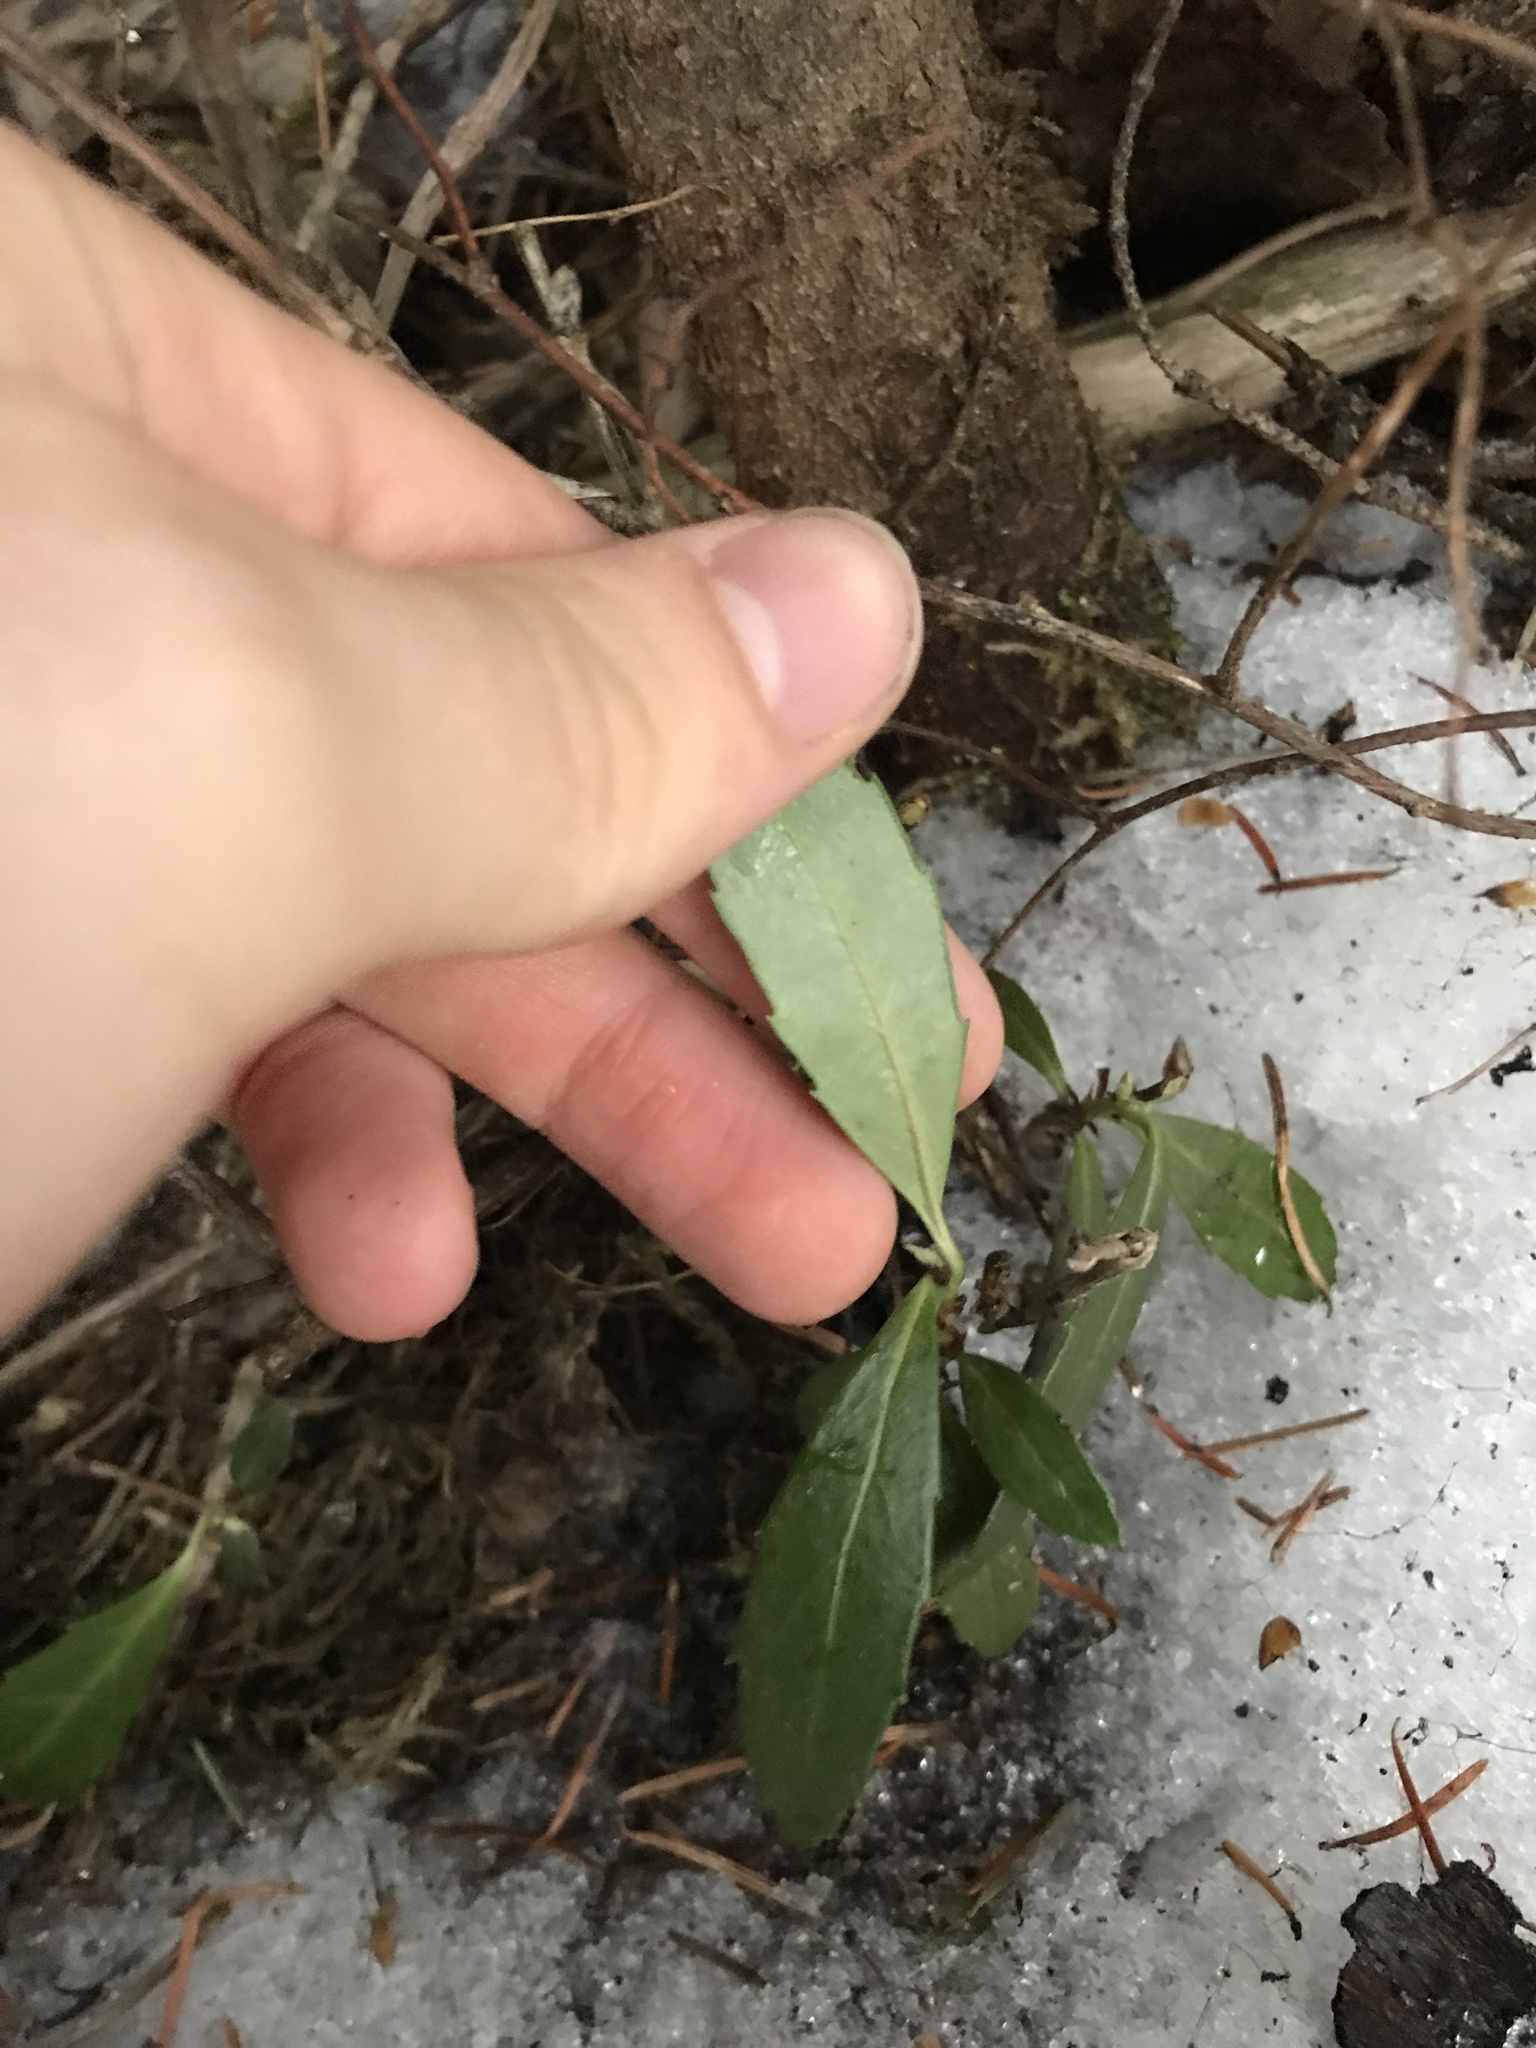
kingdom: Plantae
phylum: Tracheophyta
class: Magnoliopsida
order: Ericales
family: Ericaceae
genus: Chimaphila
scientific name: Chimaphila umbellata
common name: Pipsissewa
